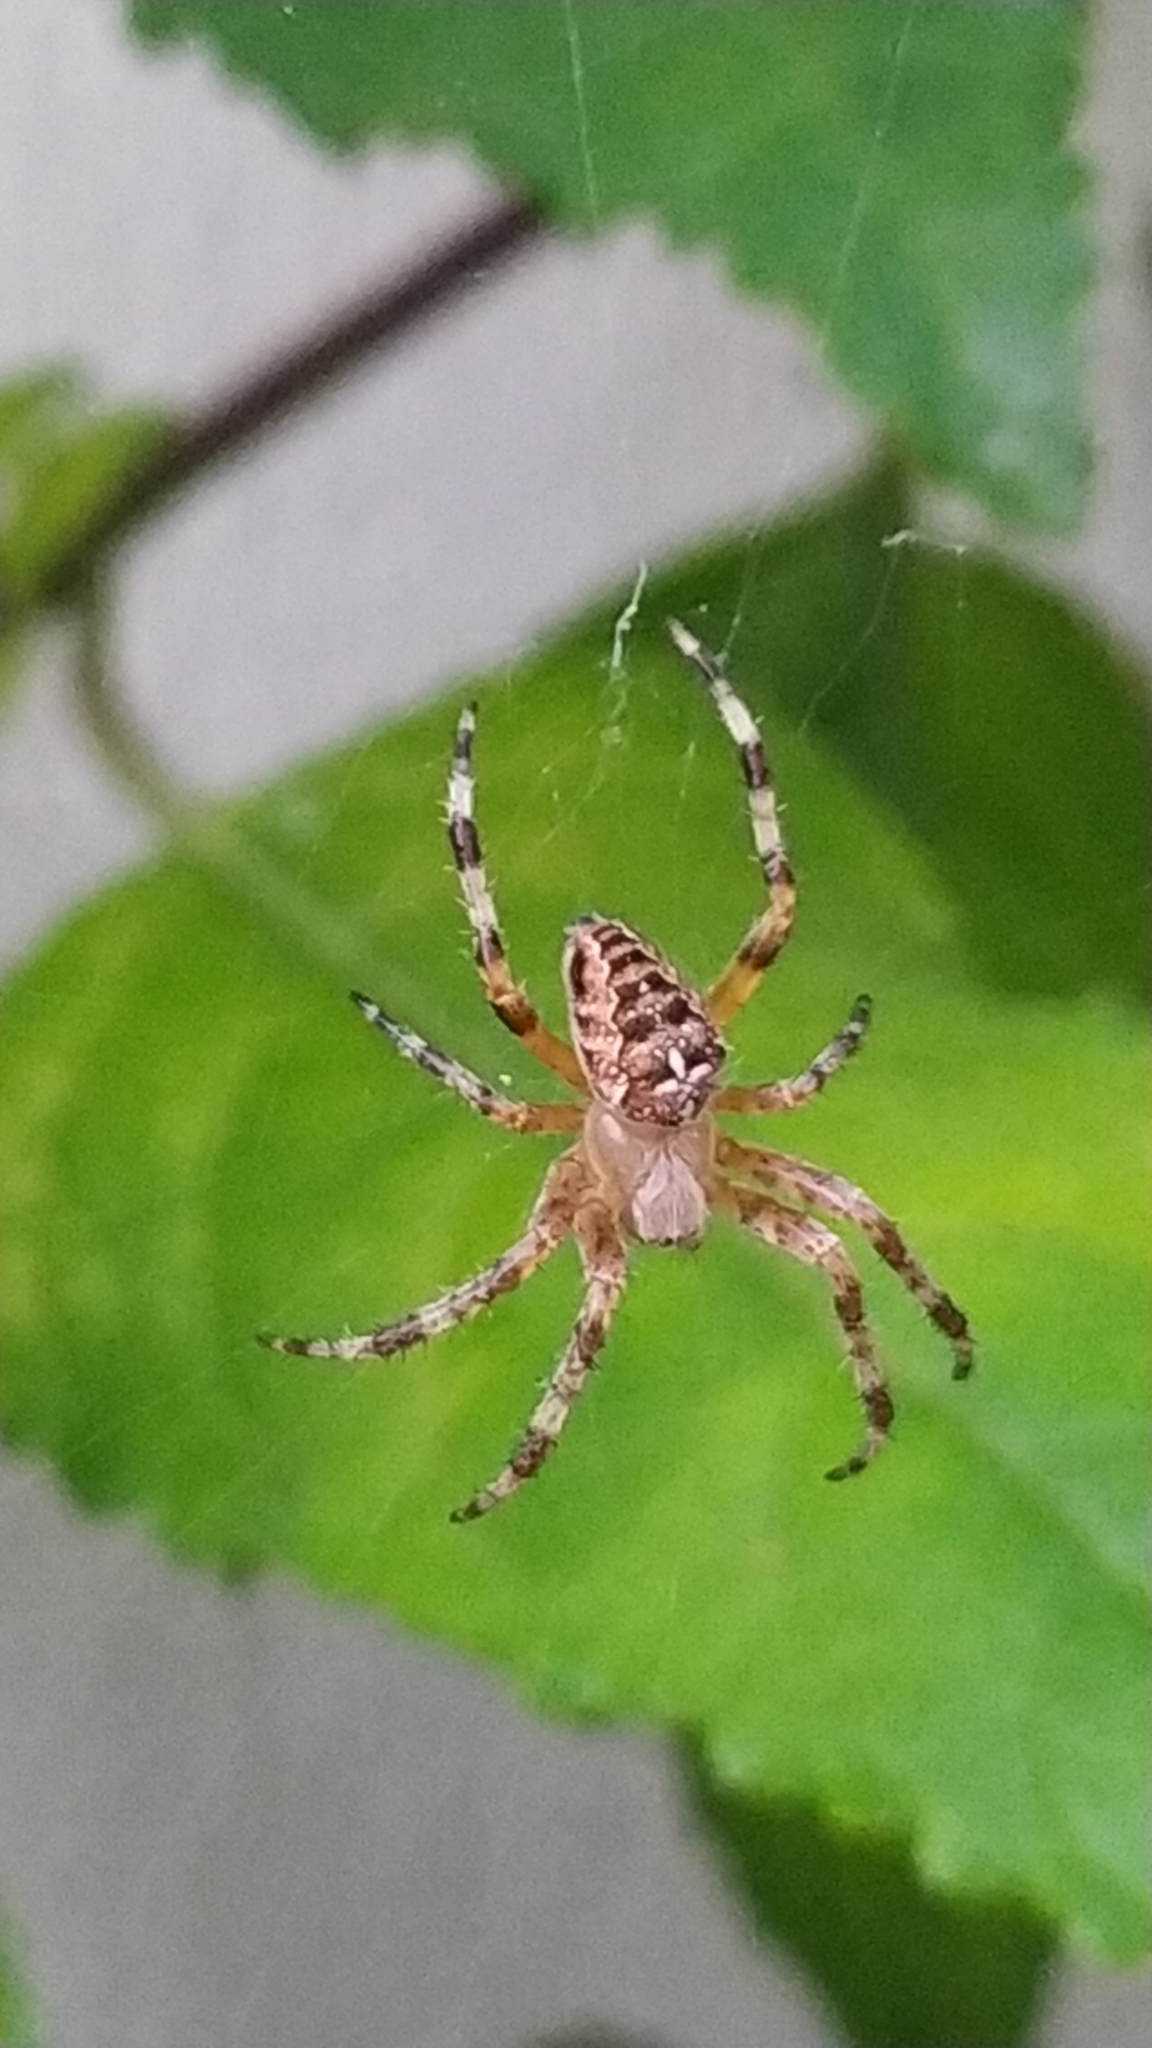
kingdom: Animalia
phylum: Arthropoda
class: Arachnida
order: Araneae
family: Araneidae
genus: Araneus
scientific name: Araneus diadematus
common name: Cross orbweaver
